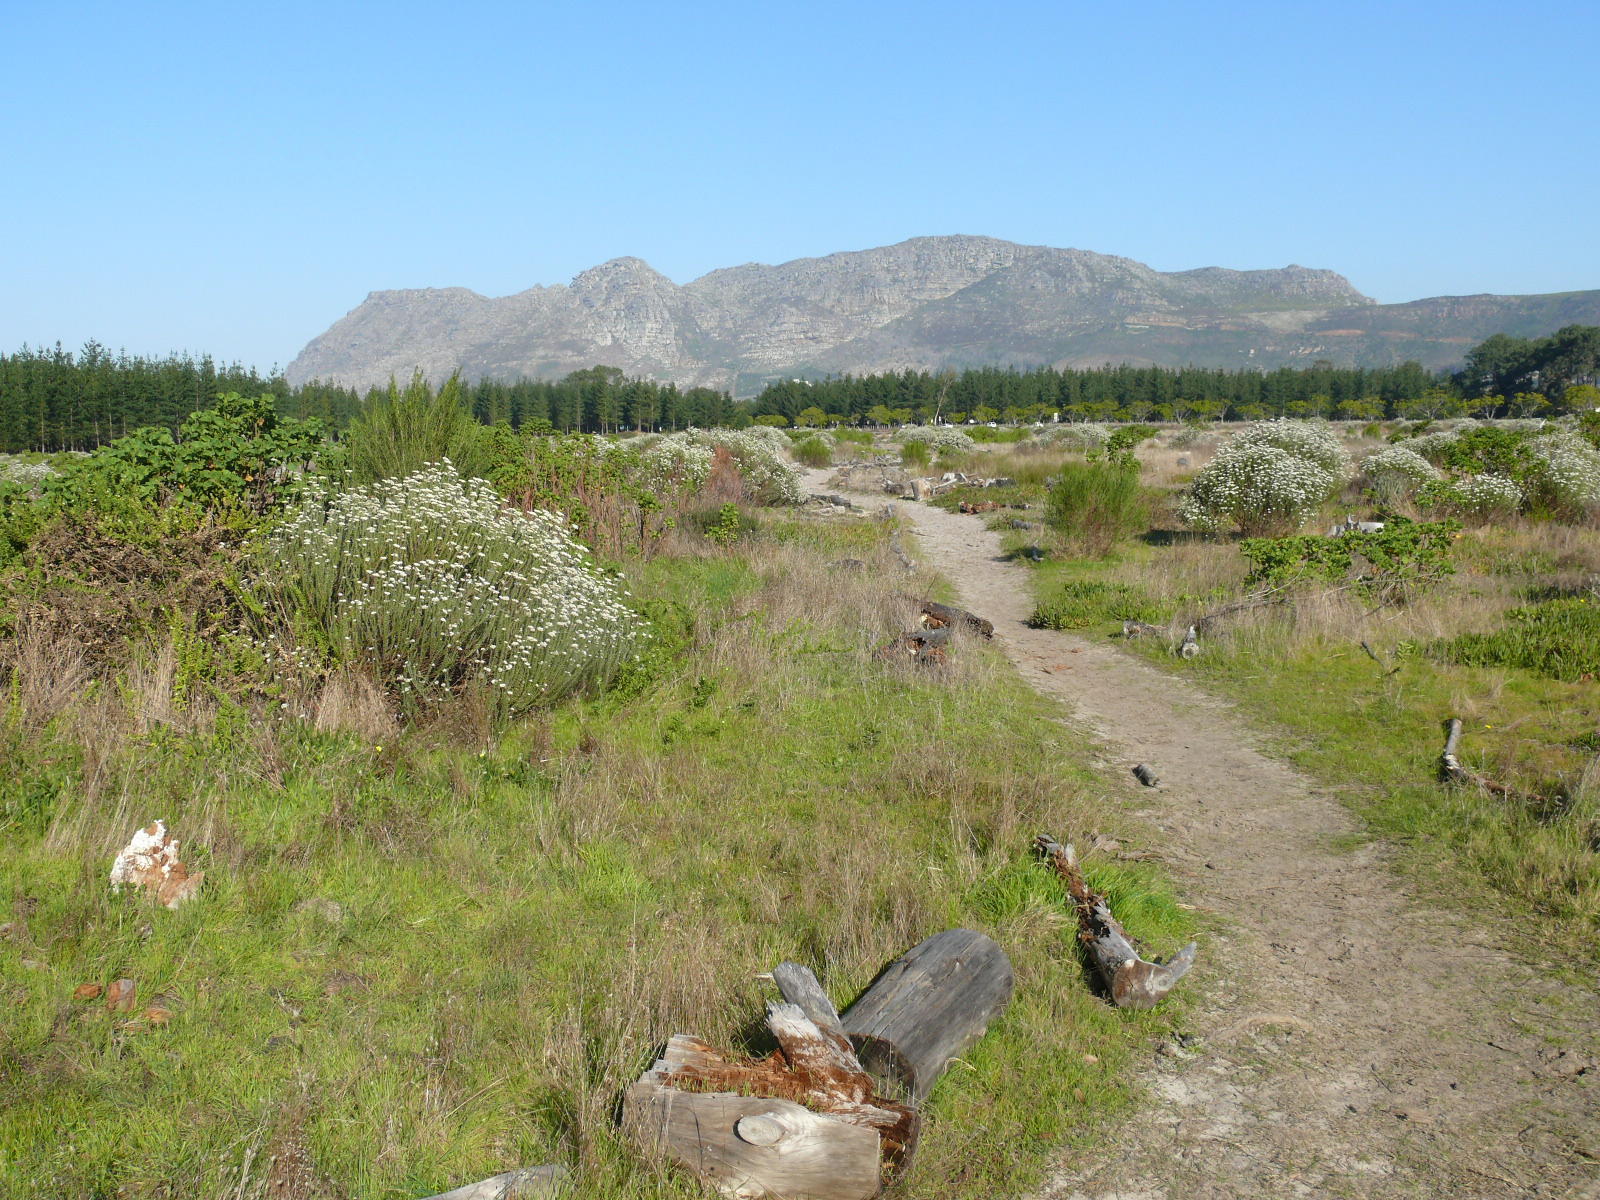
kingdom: Plantae
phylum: Tracheophyta
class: Magnoliopsida
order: Asterales
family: Asteraceae
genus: Metalasia
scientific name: Metalasia densa
